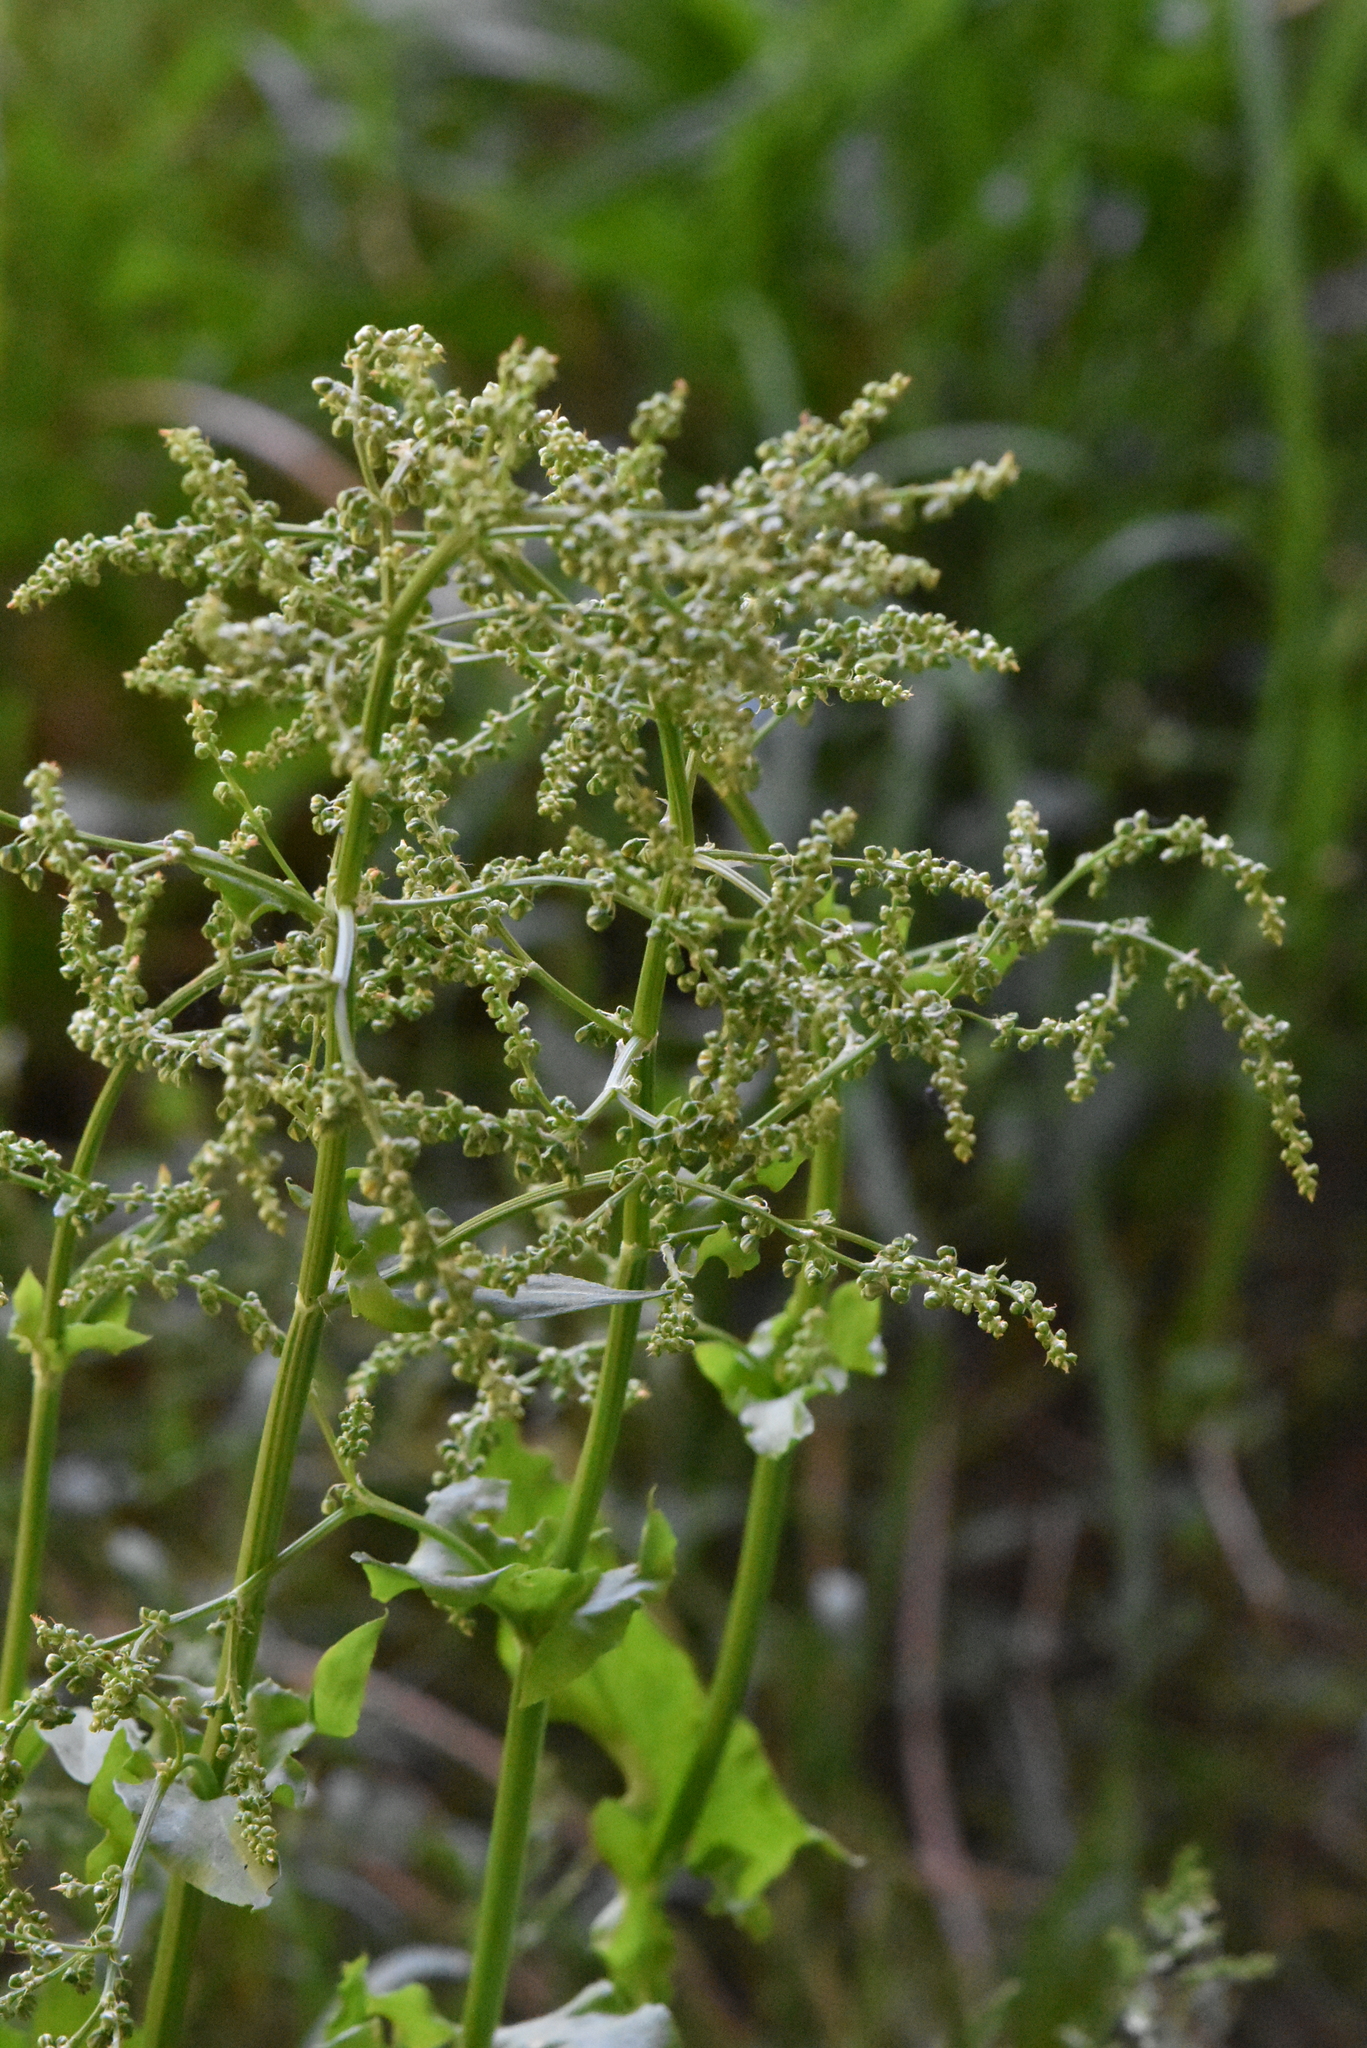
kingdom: Plantae
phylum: Tracheophyta
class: Magnoliopsida
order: Caryophyllales
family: Polygonaceae
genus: Rumex
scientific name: Rumex thyrsiflorus
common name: Garden sorrel
